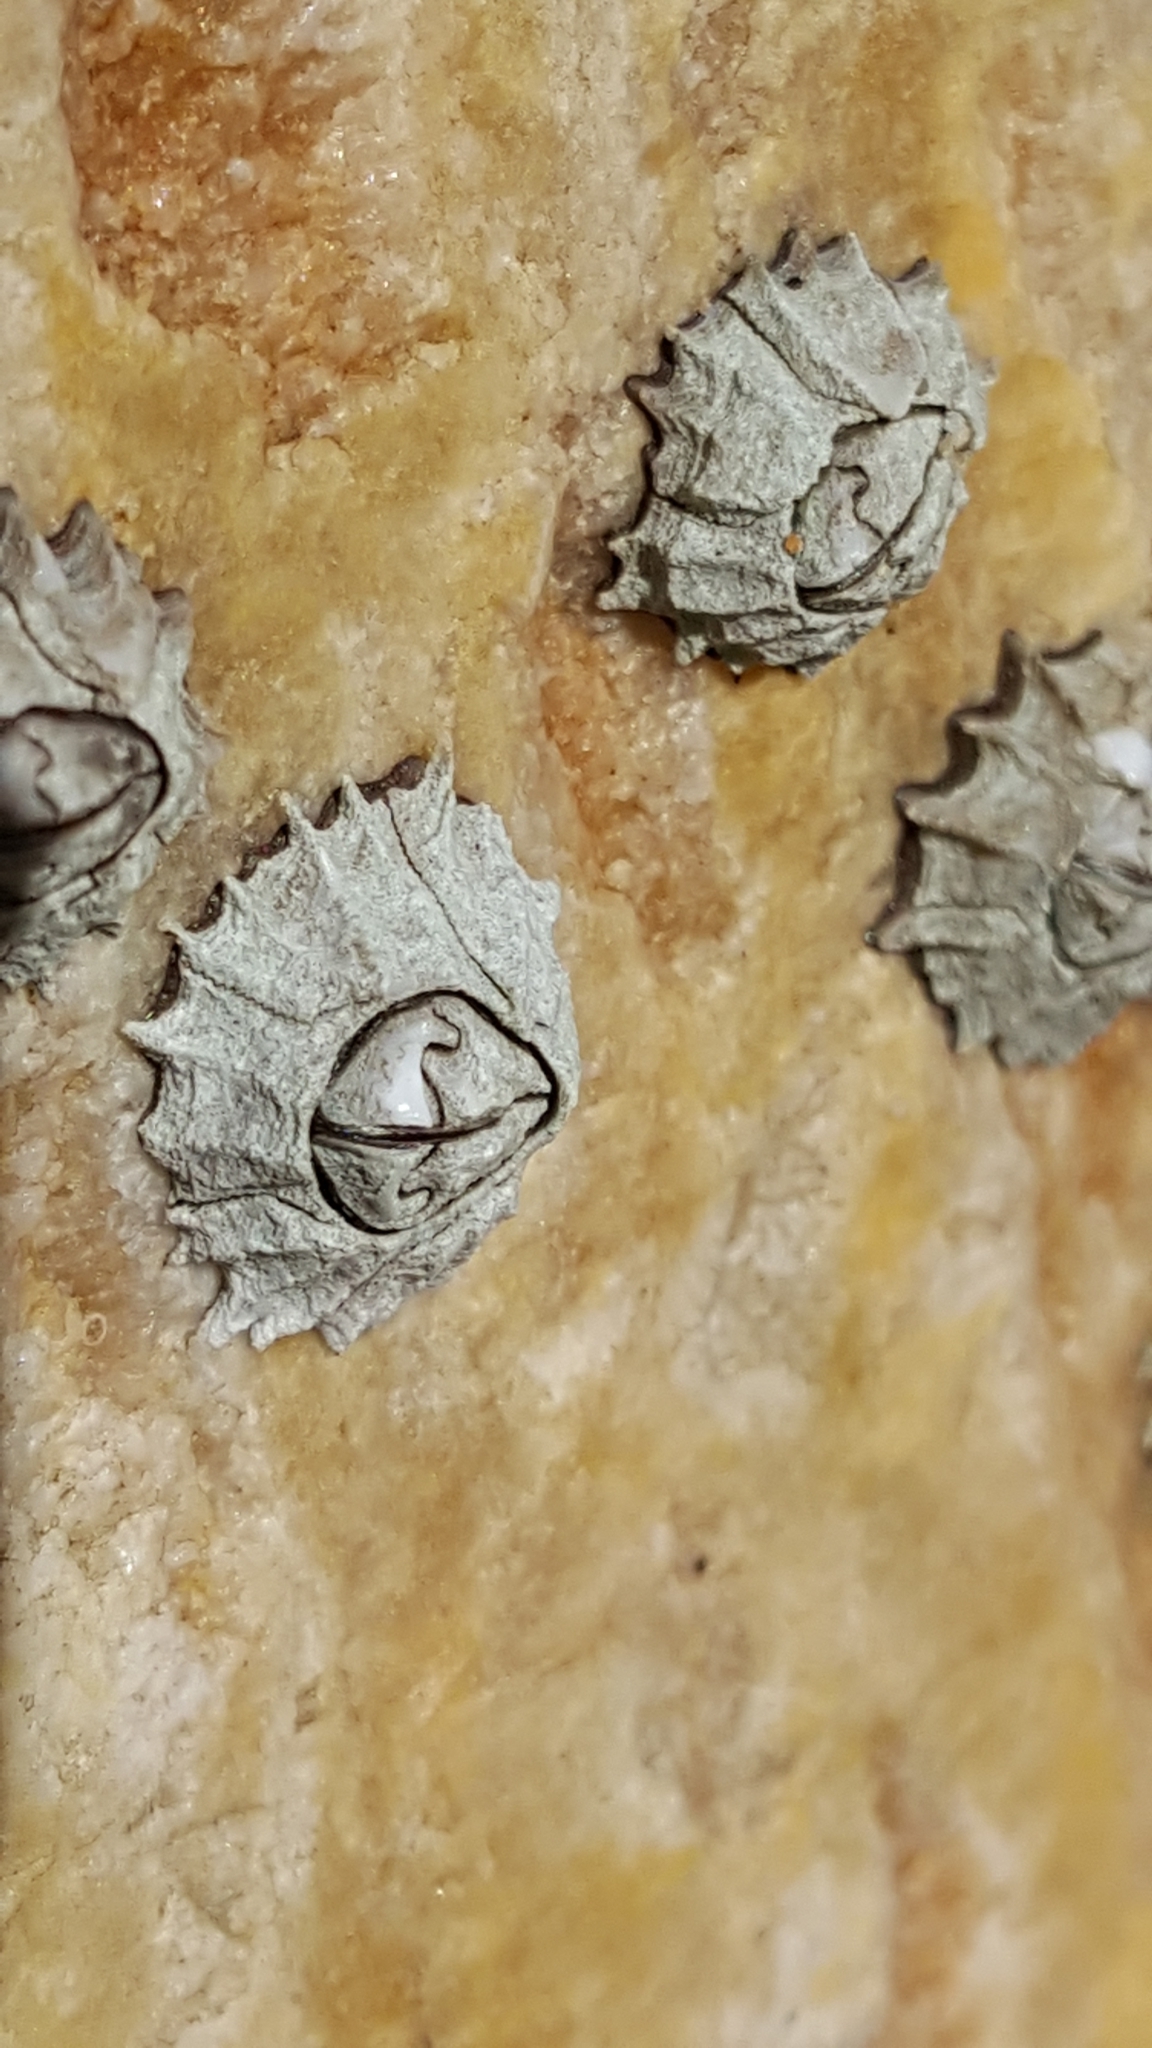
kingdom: Animalia
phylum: Arthropoda
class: Maxillopoda
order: Sessilia
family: Chthamalidae
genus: Chthamalus
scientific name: Chthamalus dentatus
